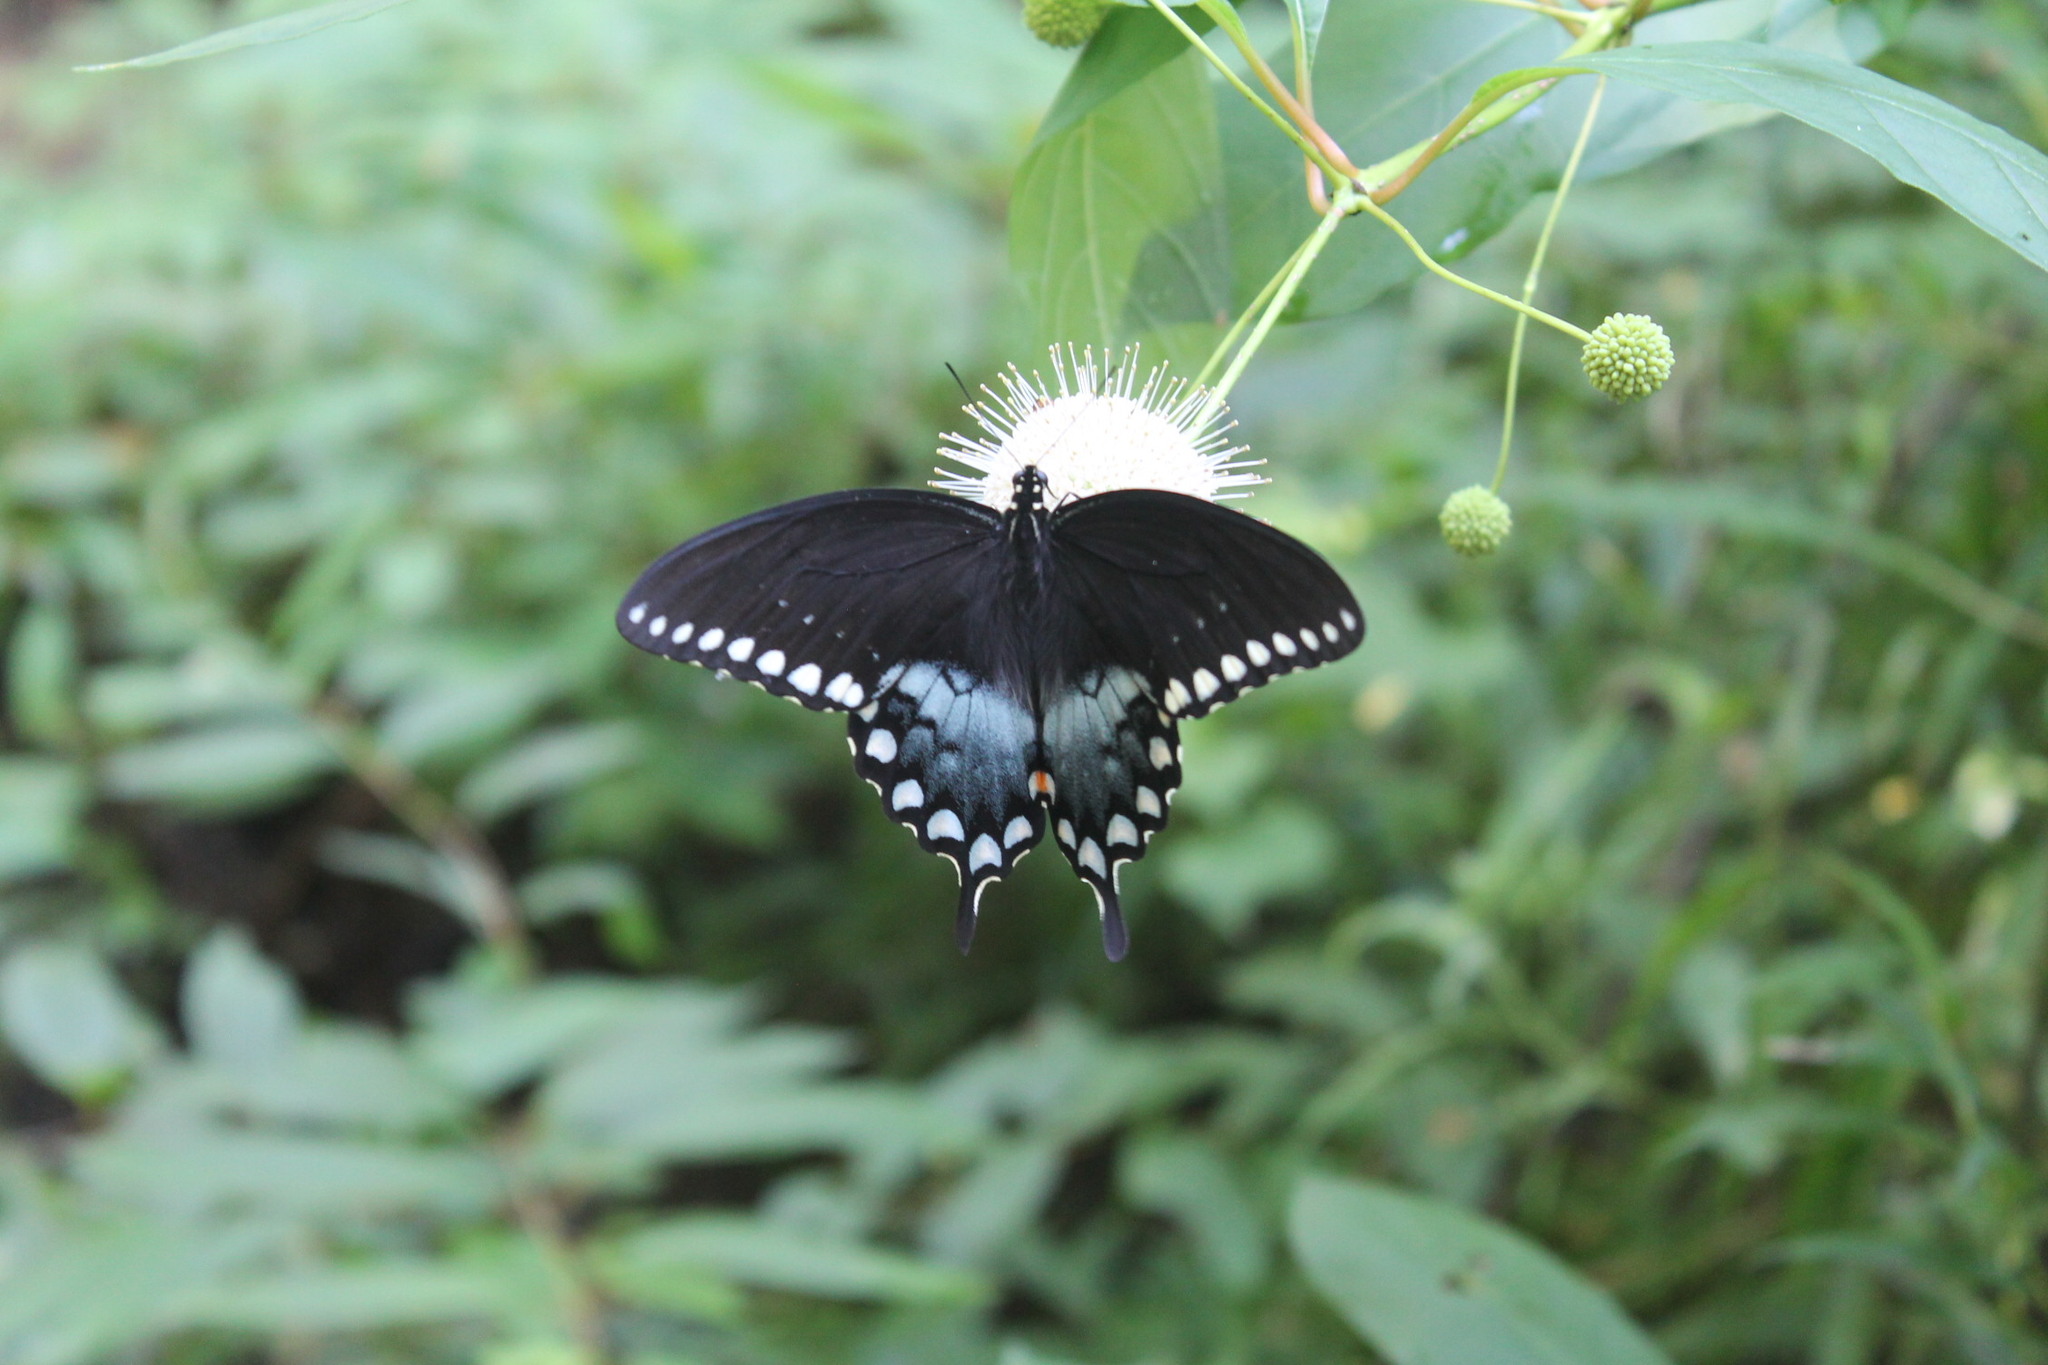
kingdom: Animalia
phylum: Arthropoda
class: Insecta
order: Lepidoptera
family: Papilionidae
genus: Papilio
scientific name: Papilio troilus
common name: Spicebush swallowtail
